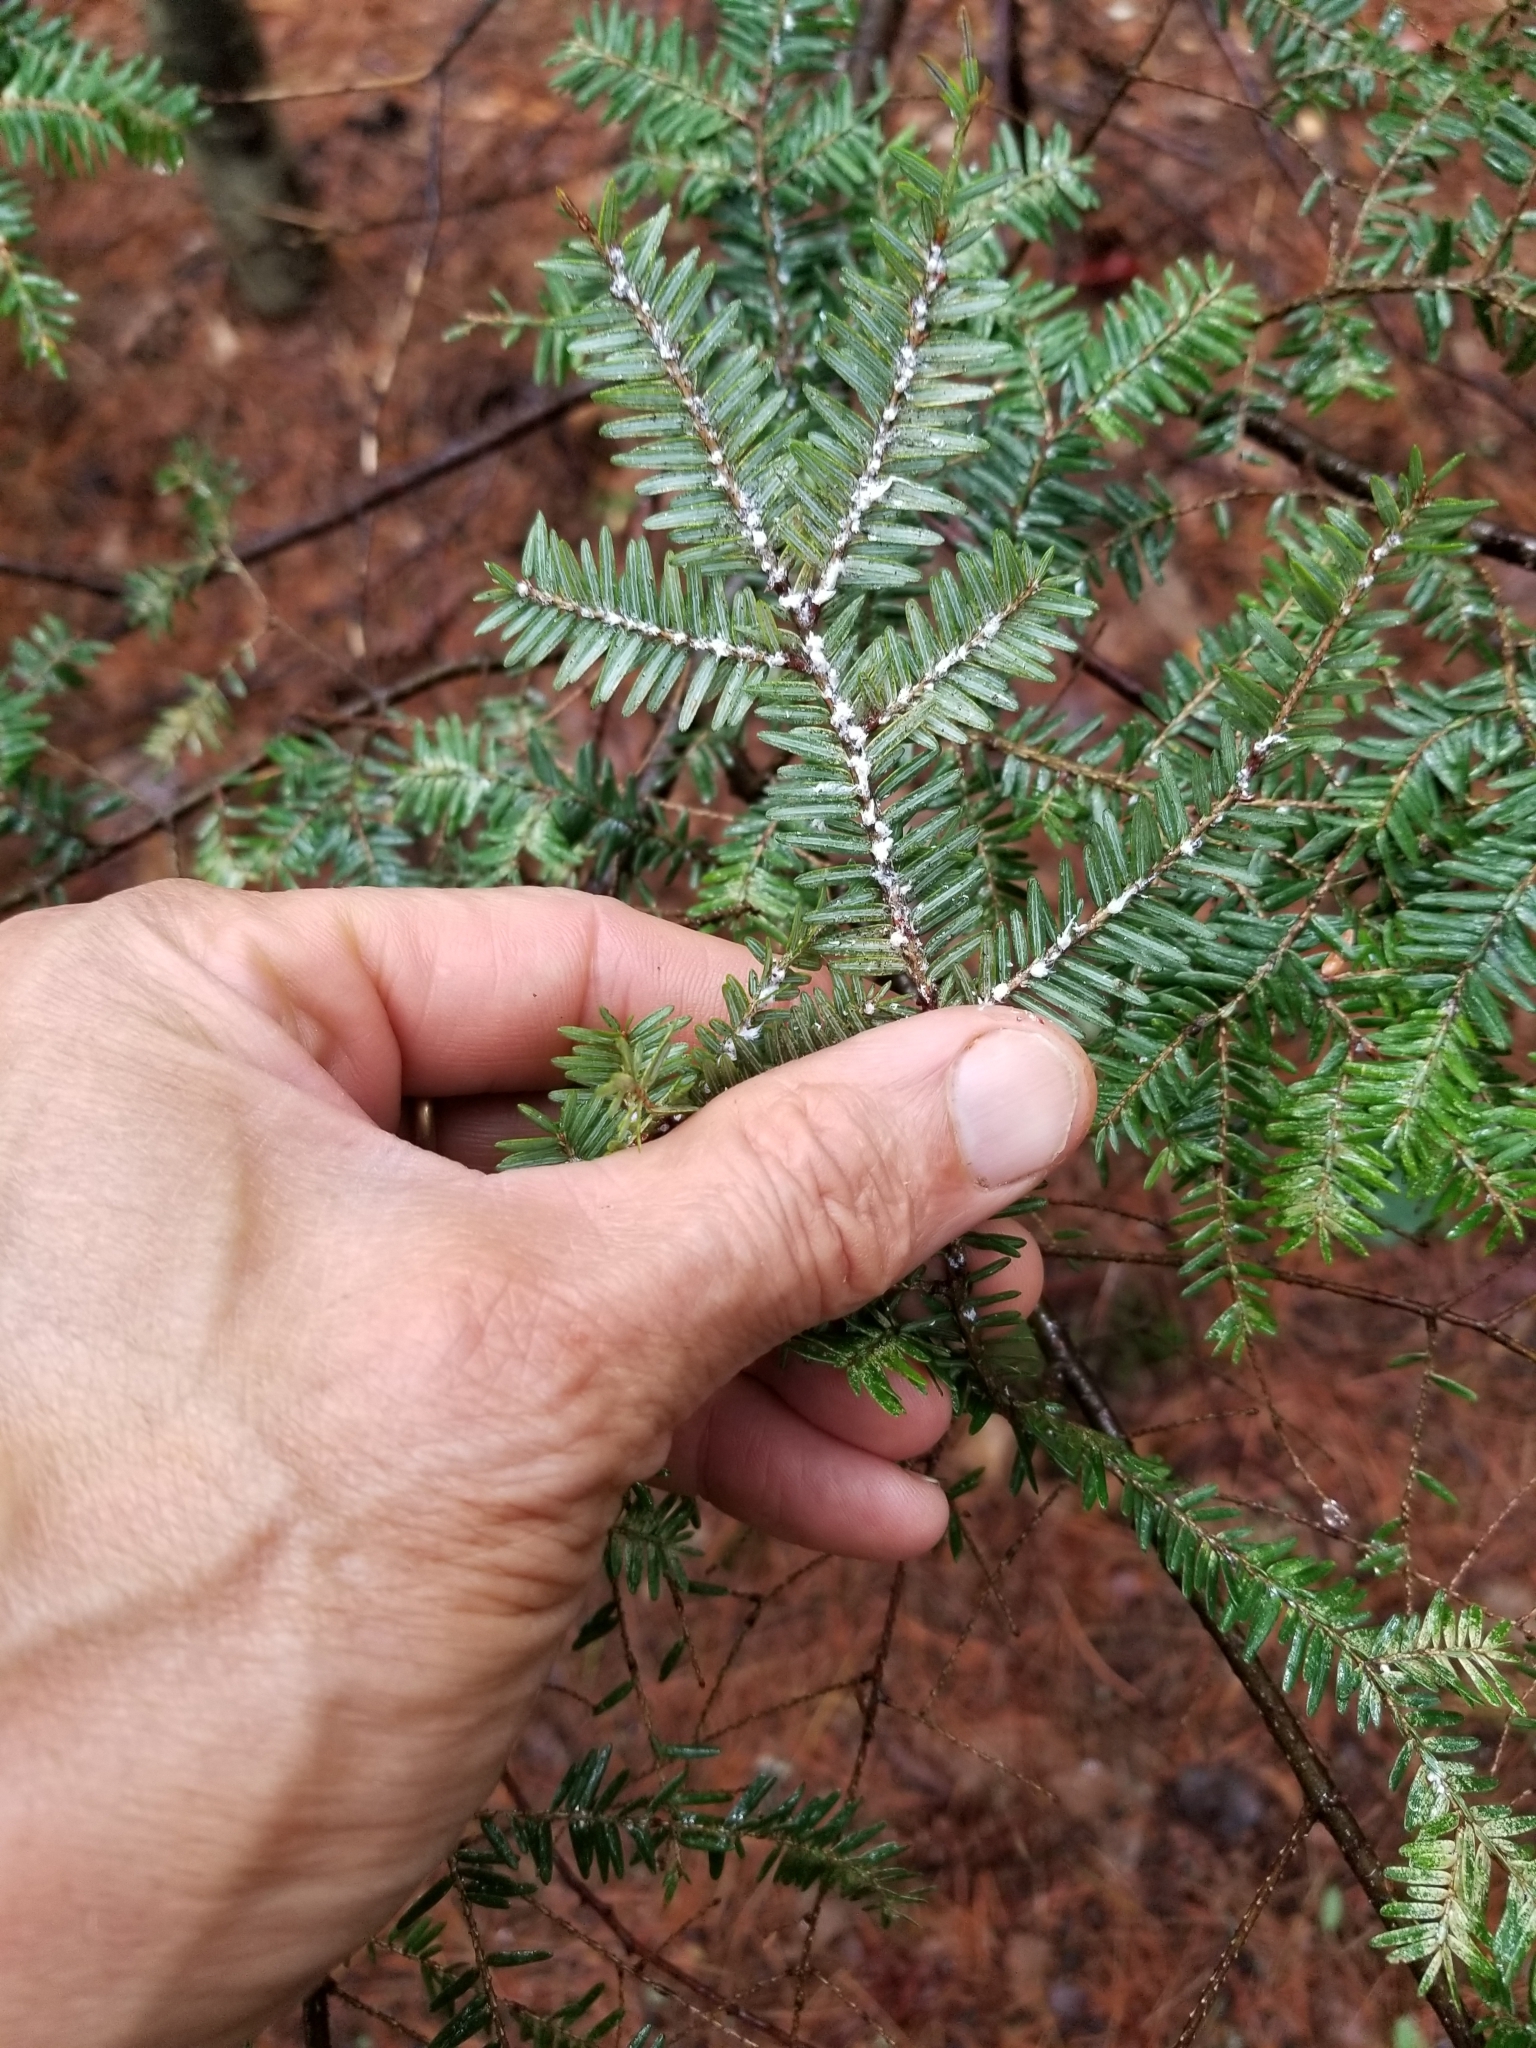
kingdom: Animalia
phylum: Arthropoda
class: Insecta
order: Hemiptera
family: Adelgidae
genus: Adelges
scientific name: Adelges tsugae
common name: Hemlock woolly adelgid
